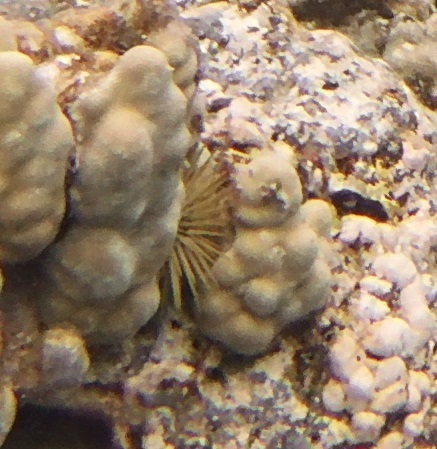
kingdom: Animalia
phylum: Echinodermata
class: Echinoidea
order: Camarodonta
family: Echinometridae
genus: Echinometra
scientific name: Echinometra mathaei
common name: Rock-boring urchin
